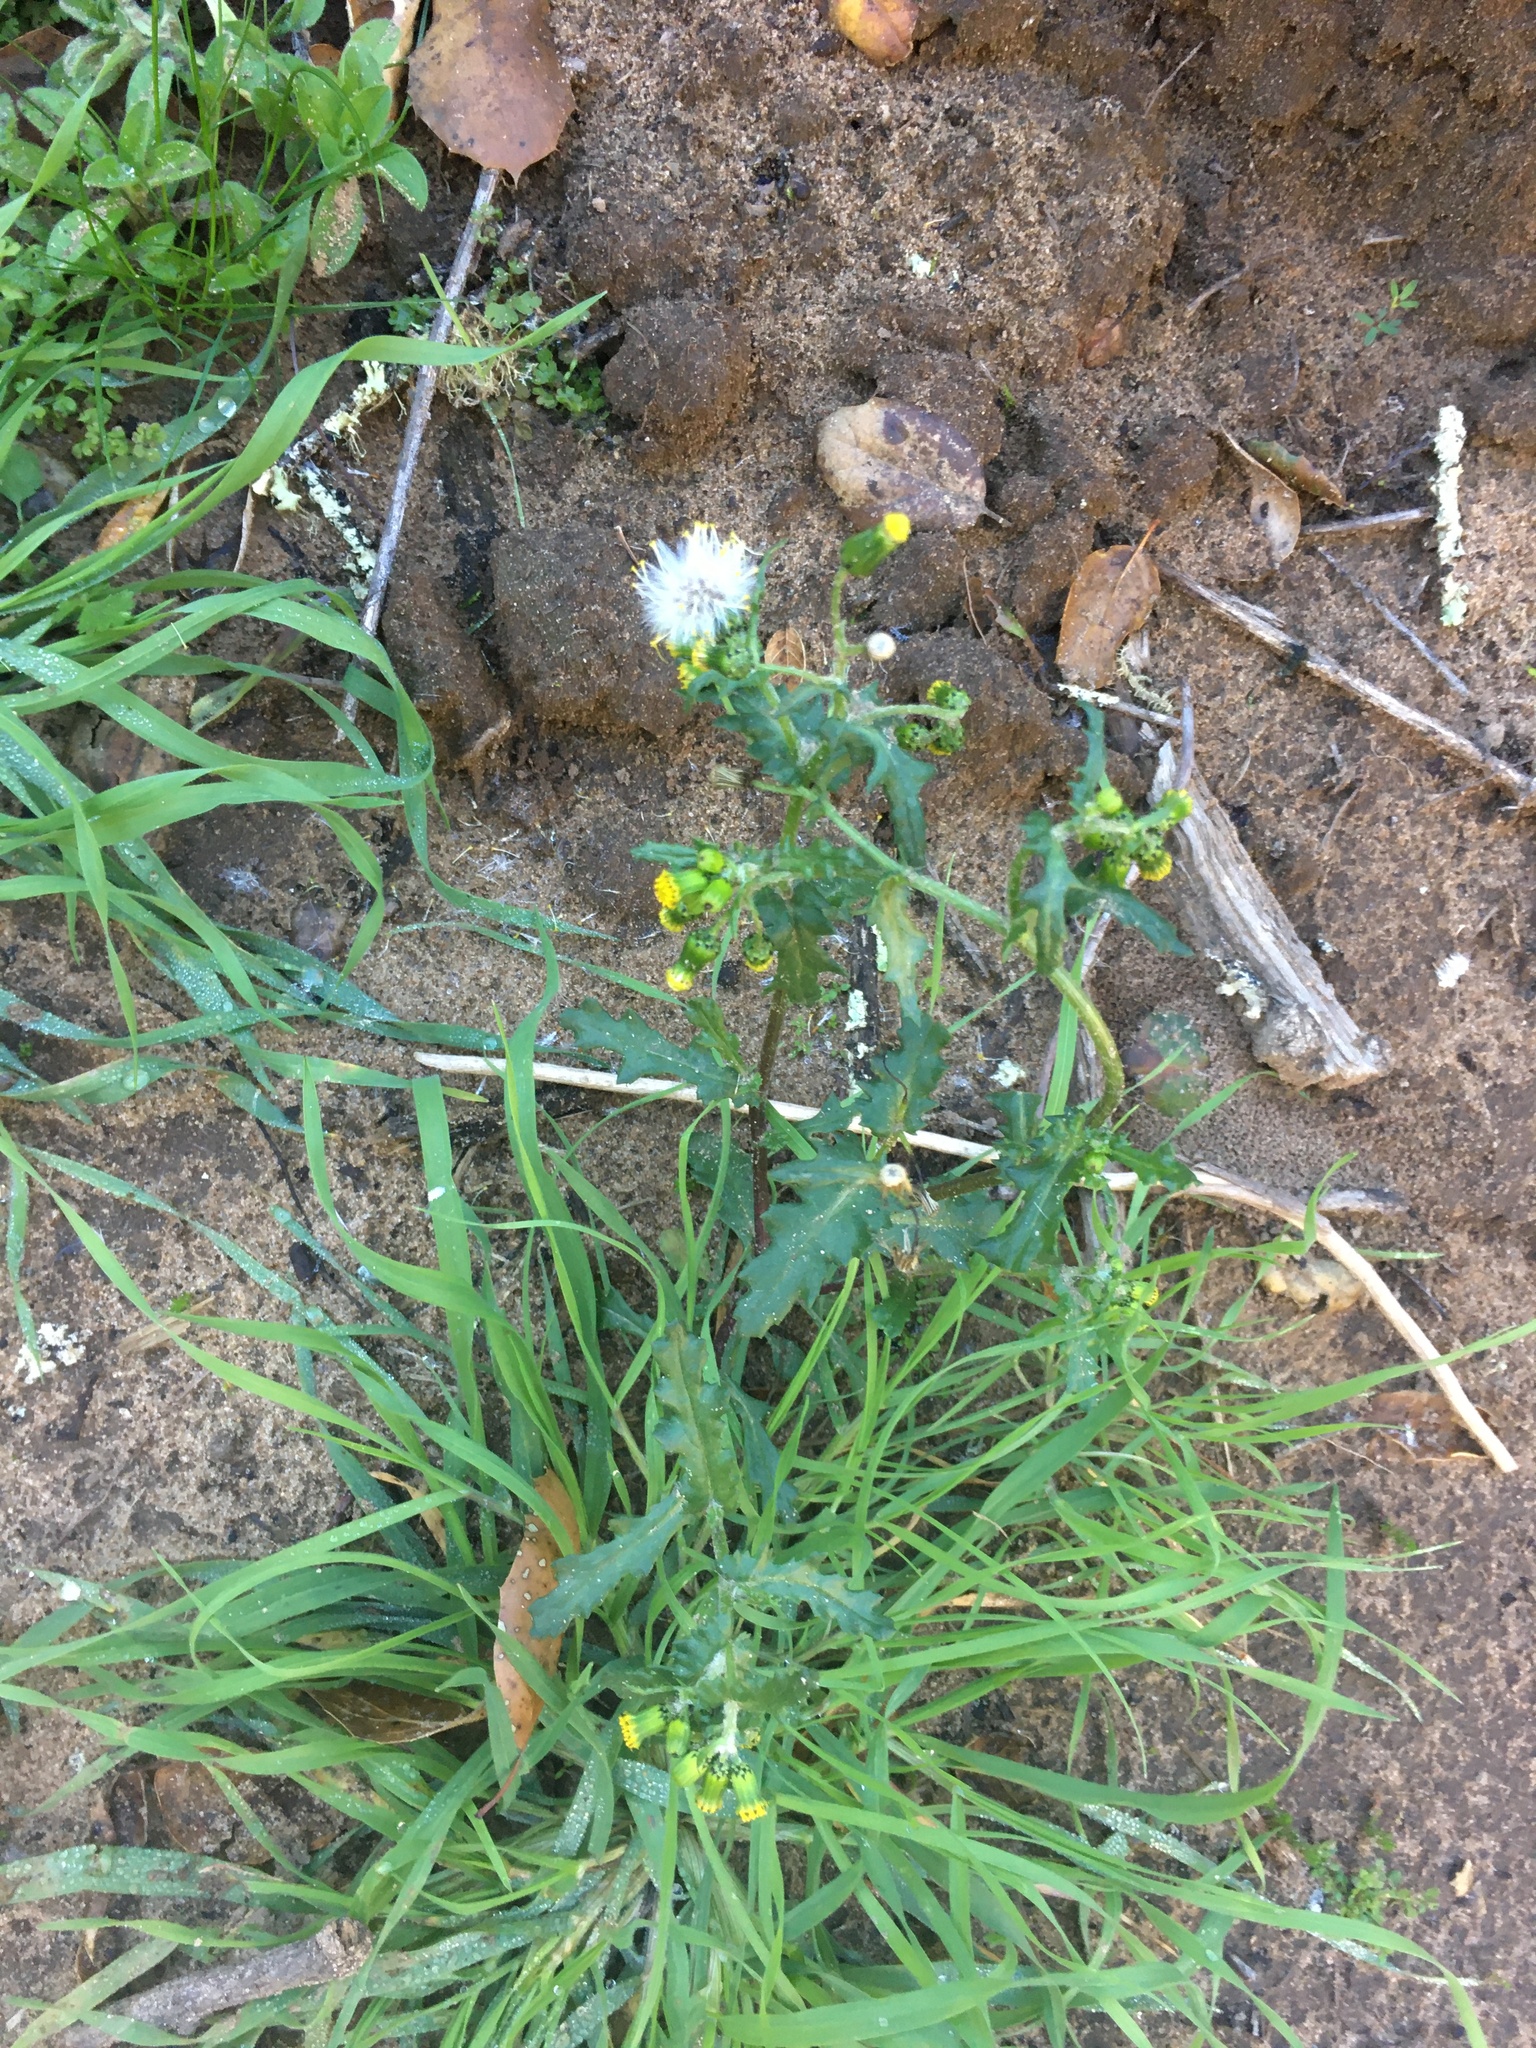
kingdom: Plantae
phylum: Tracheophyta
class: Magnoliopsida
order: Asterales
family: Asteraceae
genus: Senecio
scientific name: Senecio vulgaris
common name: Old-man-in-the-spring
